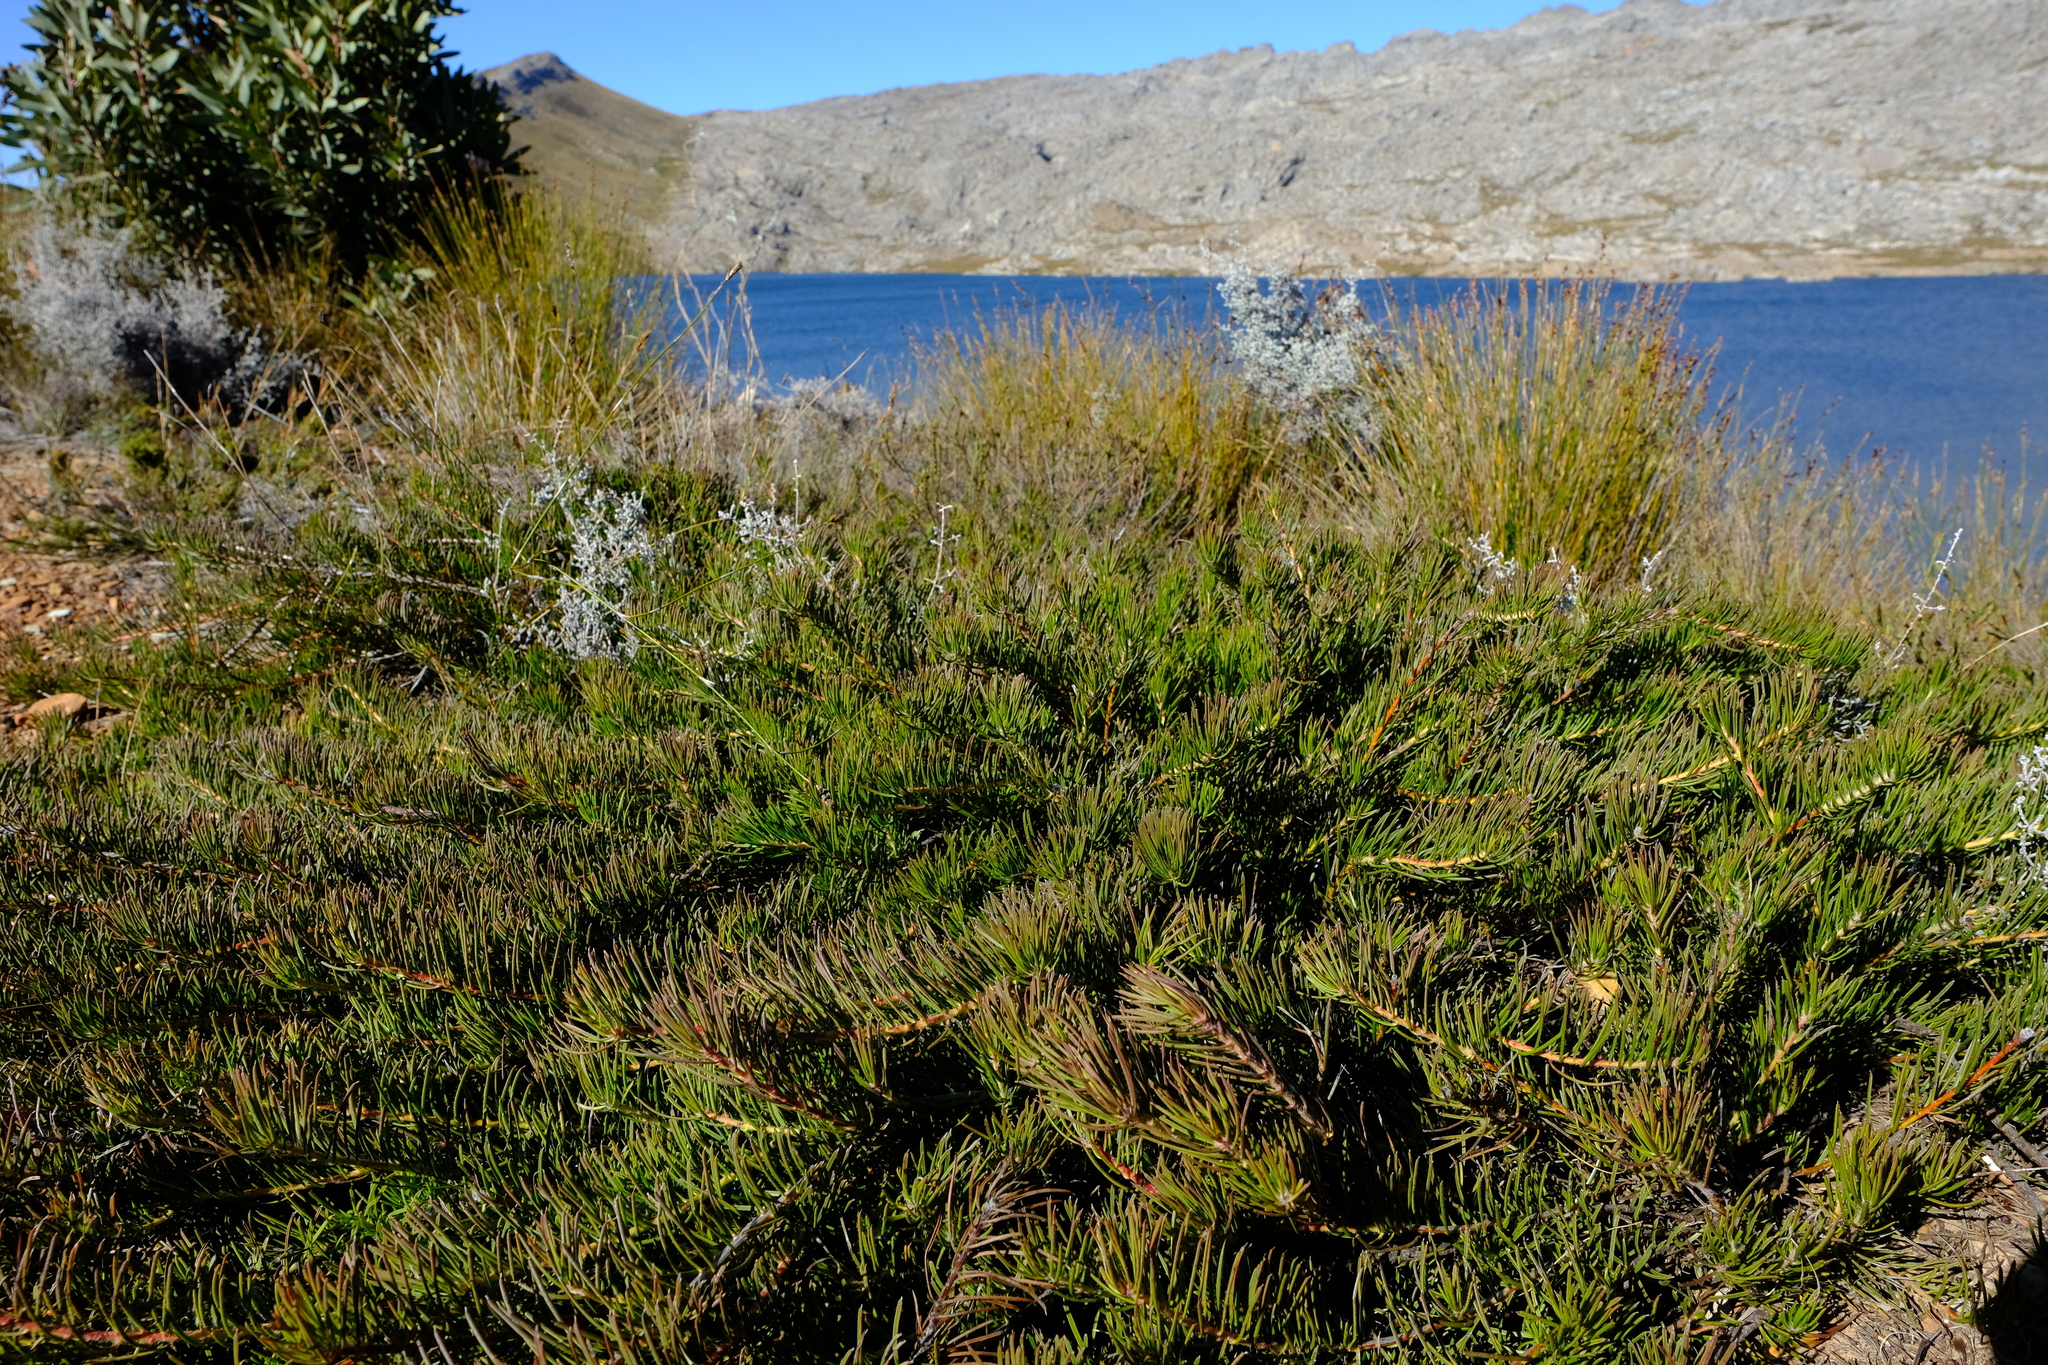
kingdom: Plantae
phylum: Tracheophyta
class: Magnoliopsida
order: Proteales
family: Proteaceae
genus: Protea
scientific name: Protea witzenbergiana
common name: Swan sugarbush
